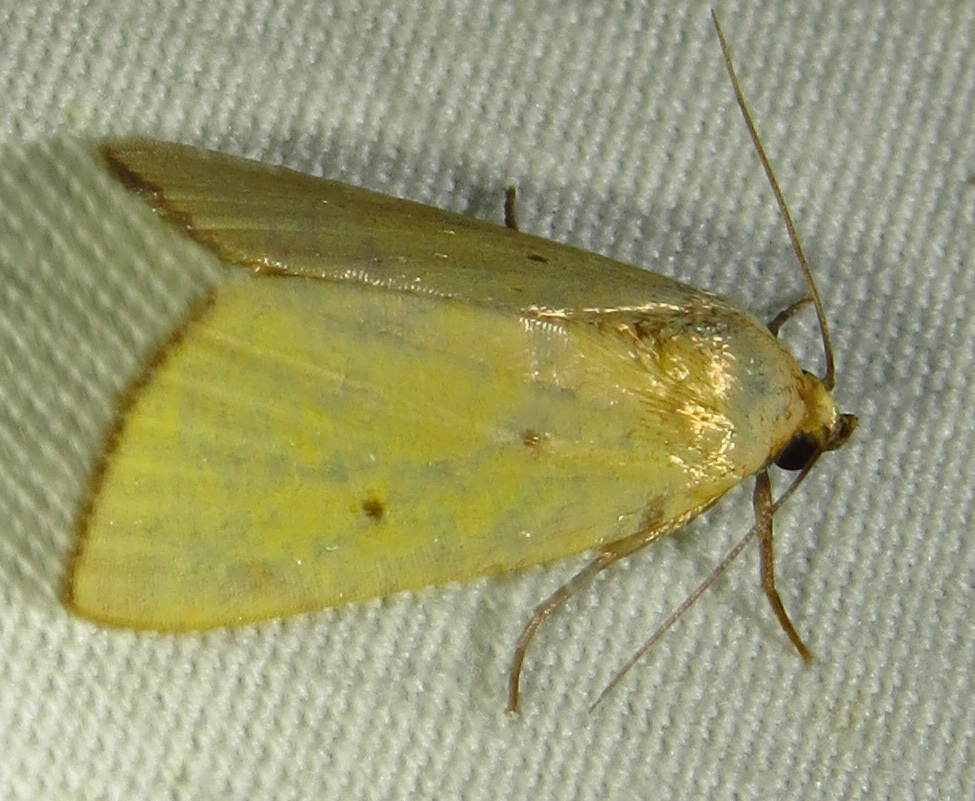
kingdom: Animalia
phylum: Arthropoda
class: Insecta
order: Lepidoptera
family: Noctuidae
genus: Marimatha
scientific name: Marimatha nigrofimbria
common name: Black-bordered lemon moth
